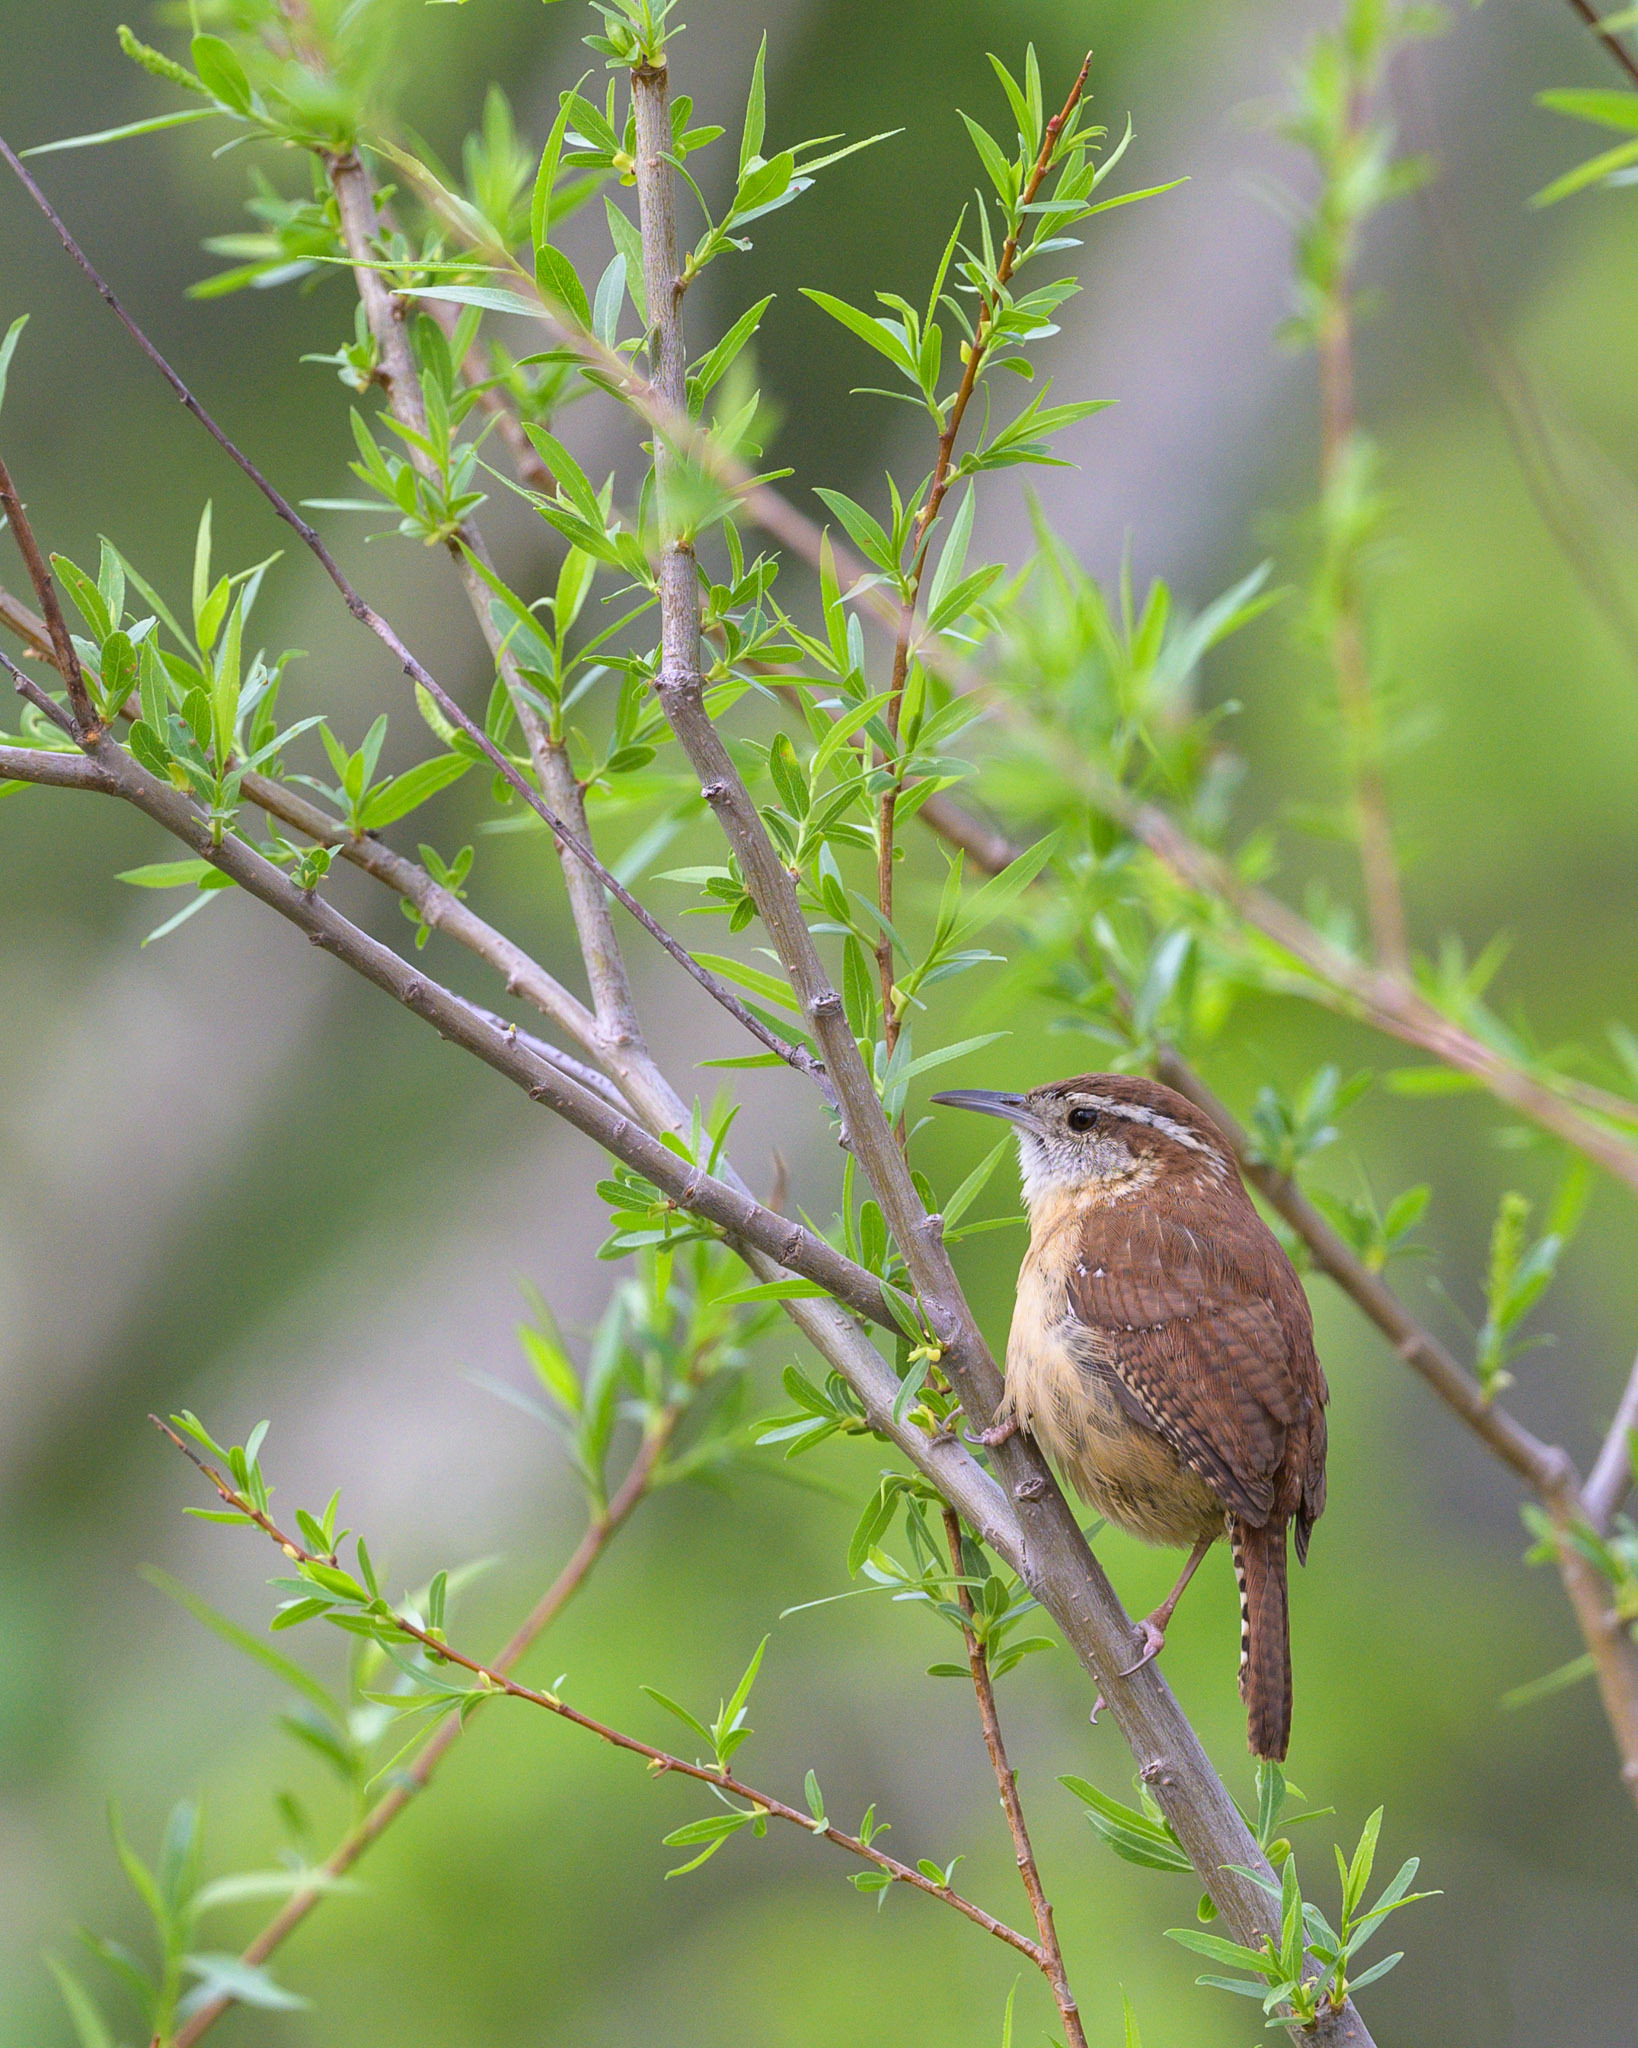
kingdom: Animalia
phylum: Chordata
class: Aves
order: Passeriformes
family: Troglodytidae
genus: Thryothorus
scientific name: Thryothorus ludovicianus
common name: Carolina wren
